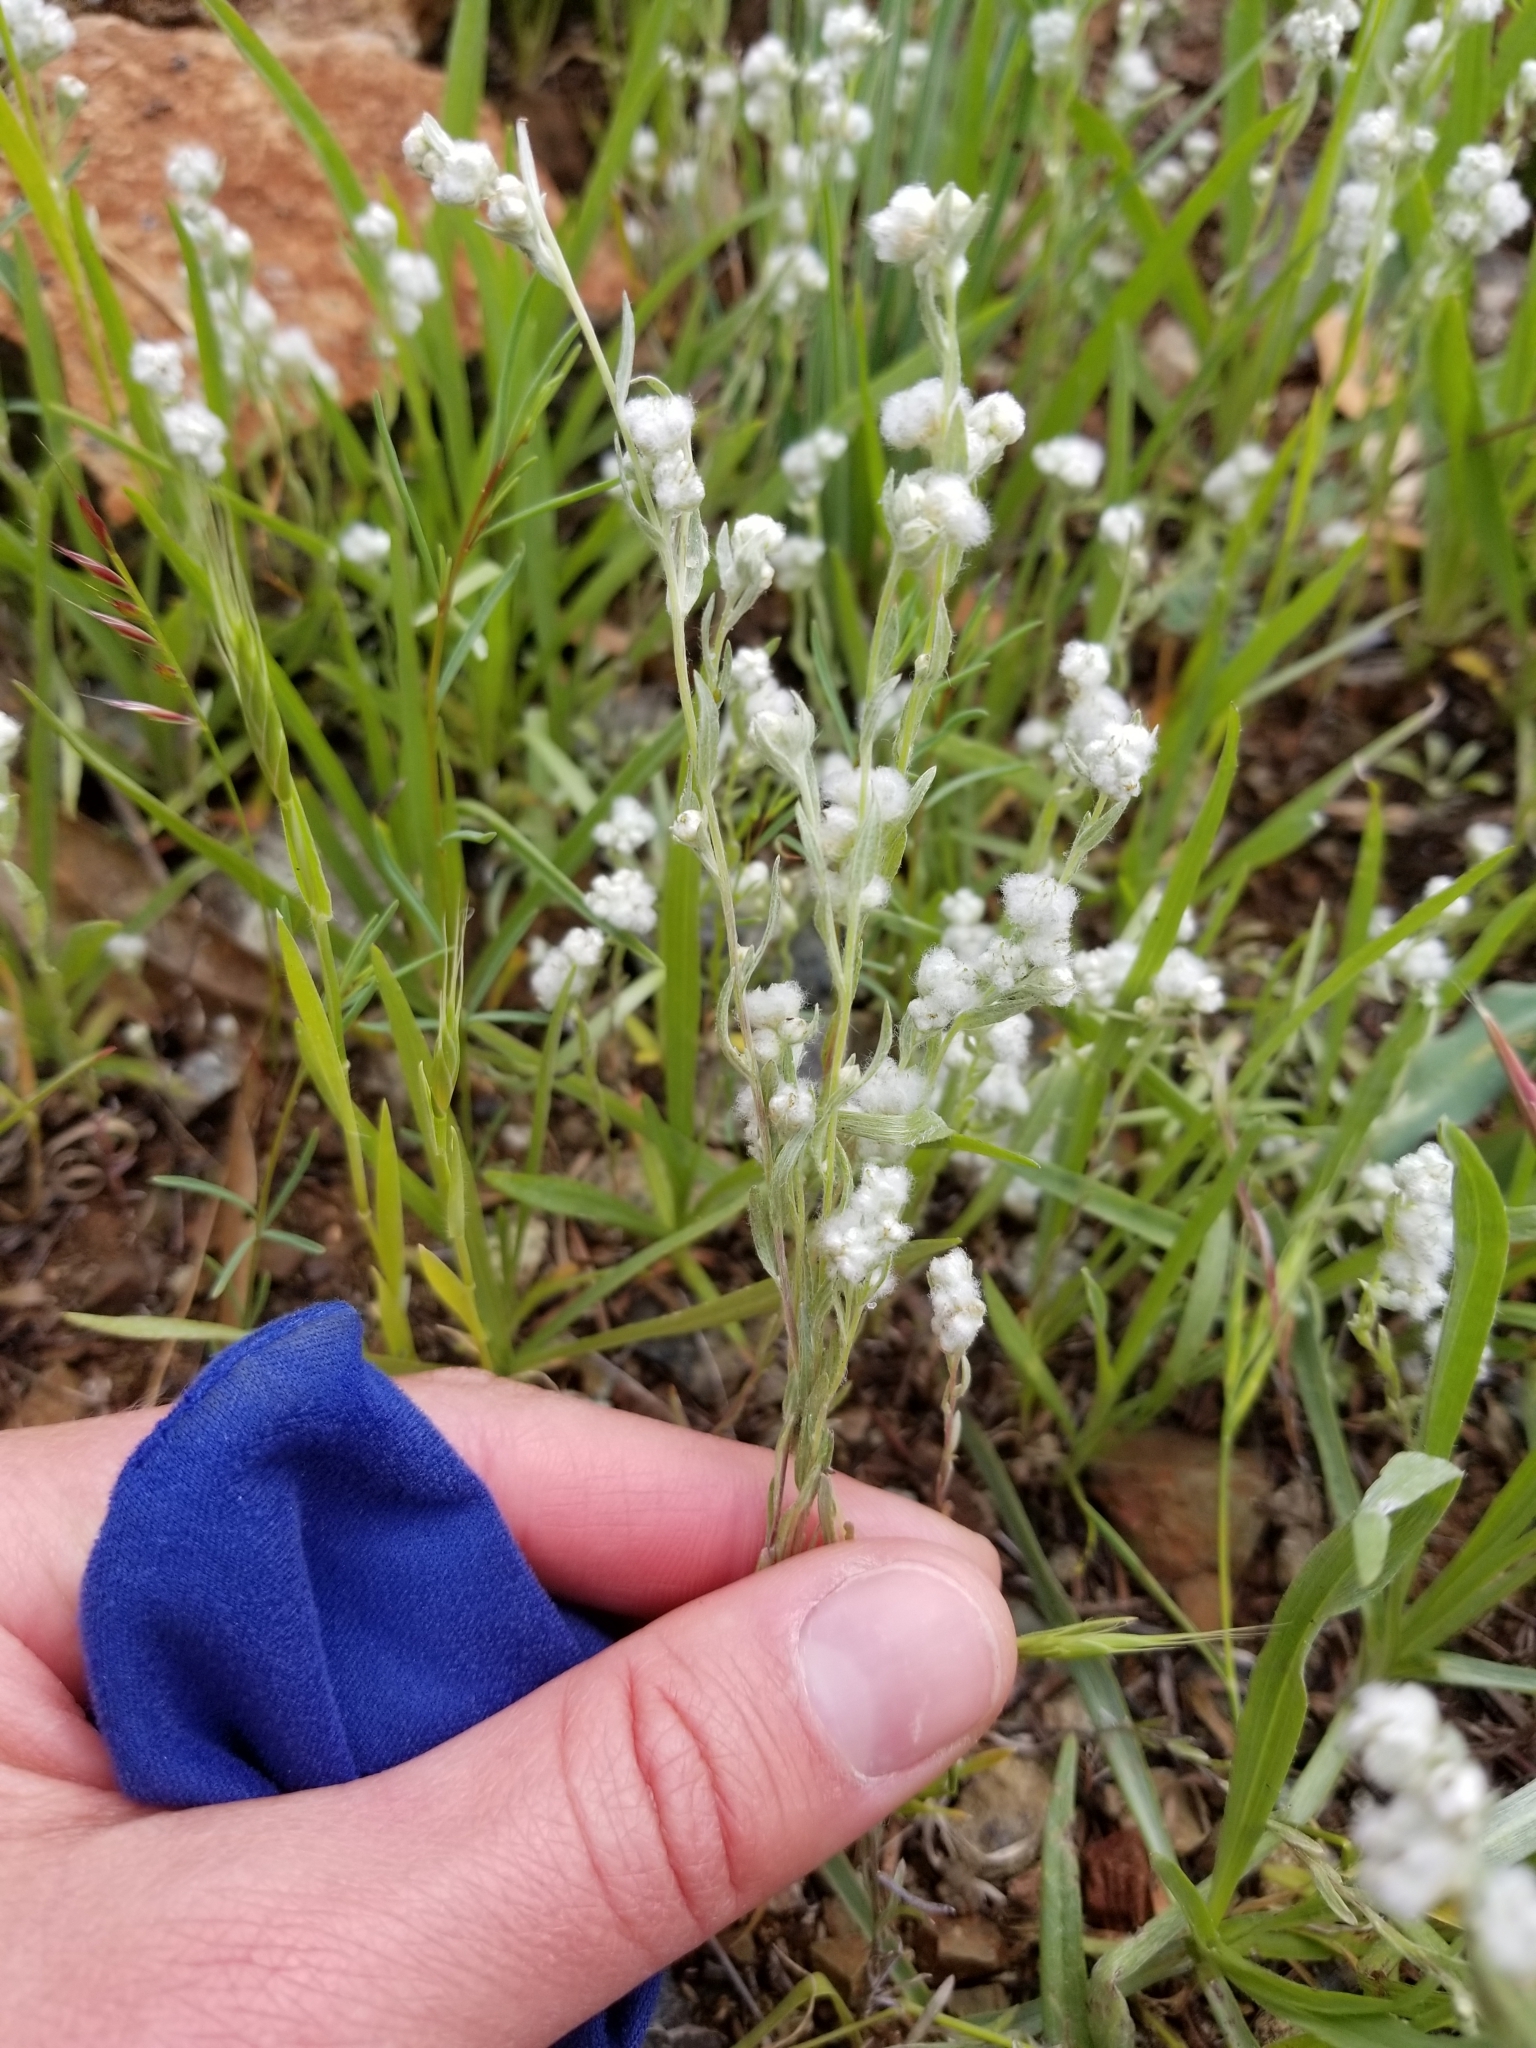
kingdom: Plantae
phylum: Tracheophyta
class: Magnoliopsida
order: Asterales
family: Asteraceae
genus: Bombycilaena
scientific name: Bombycilaena californica
